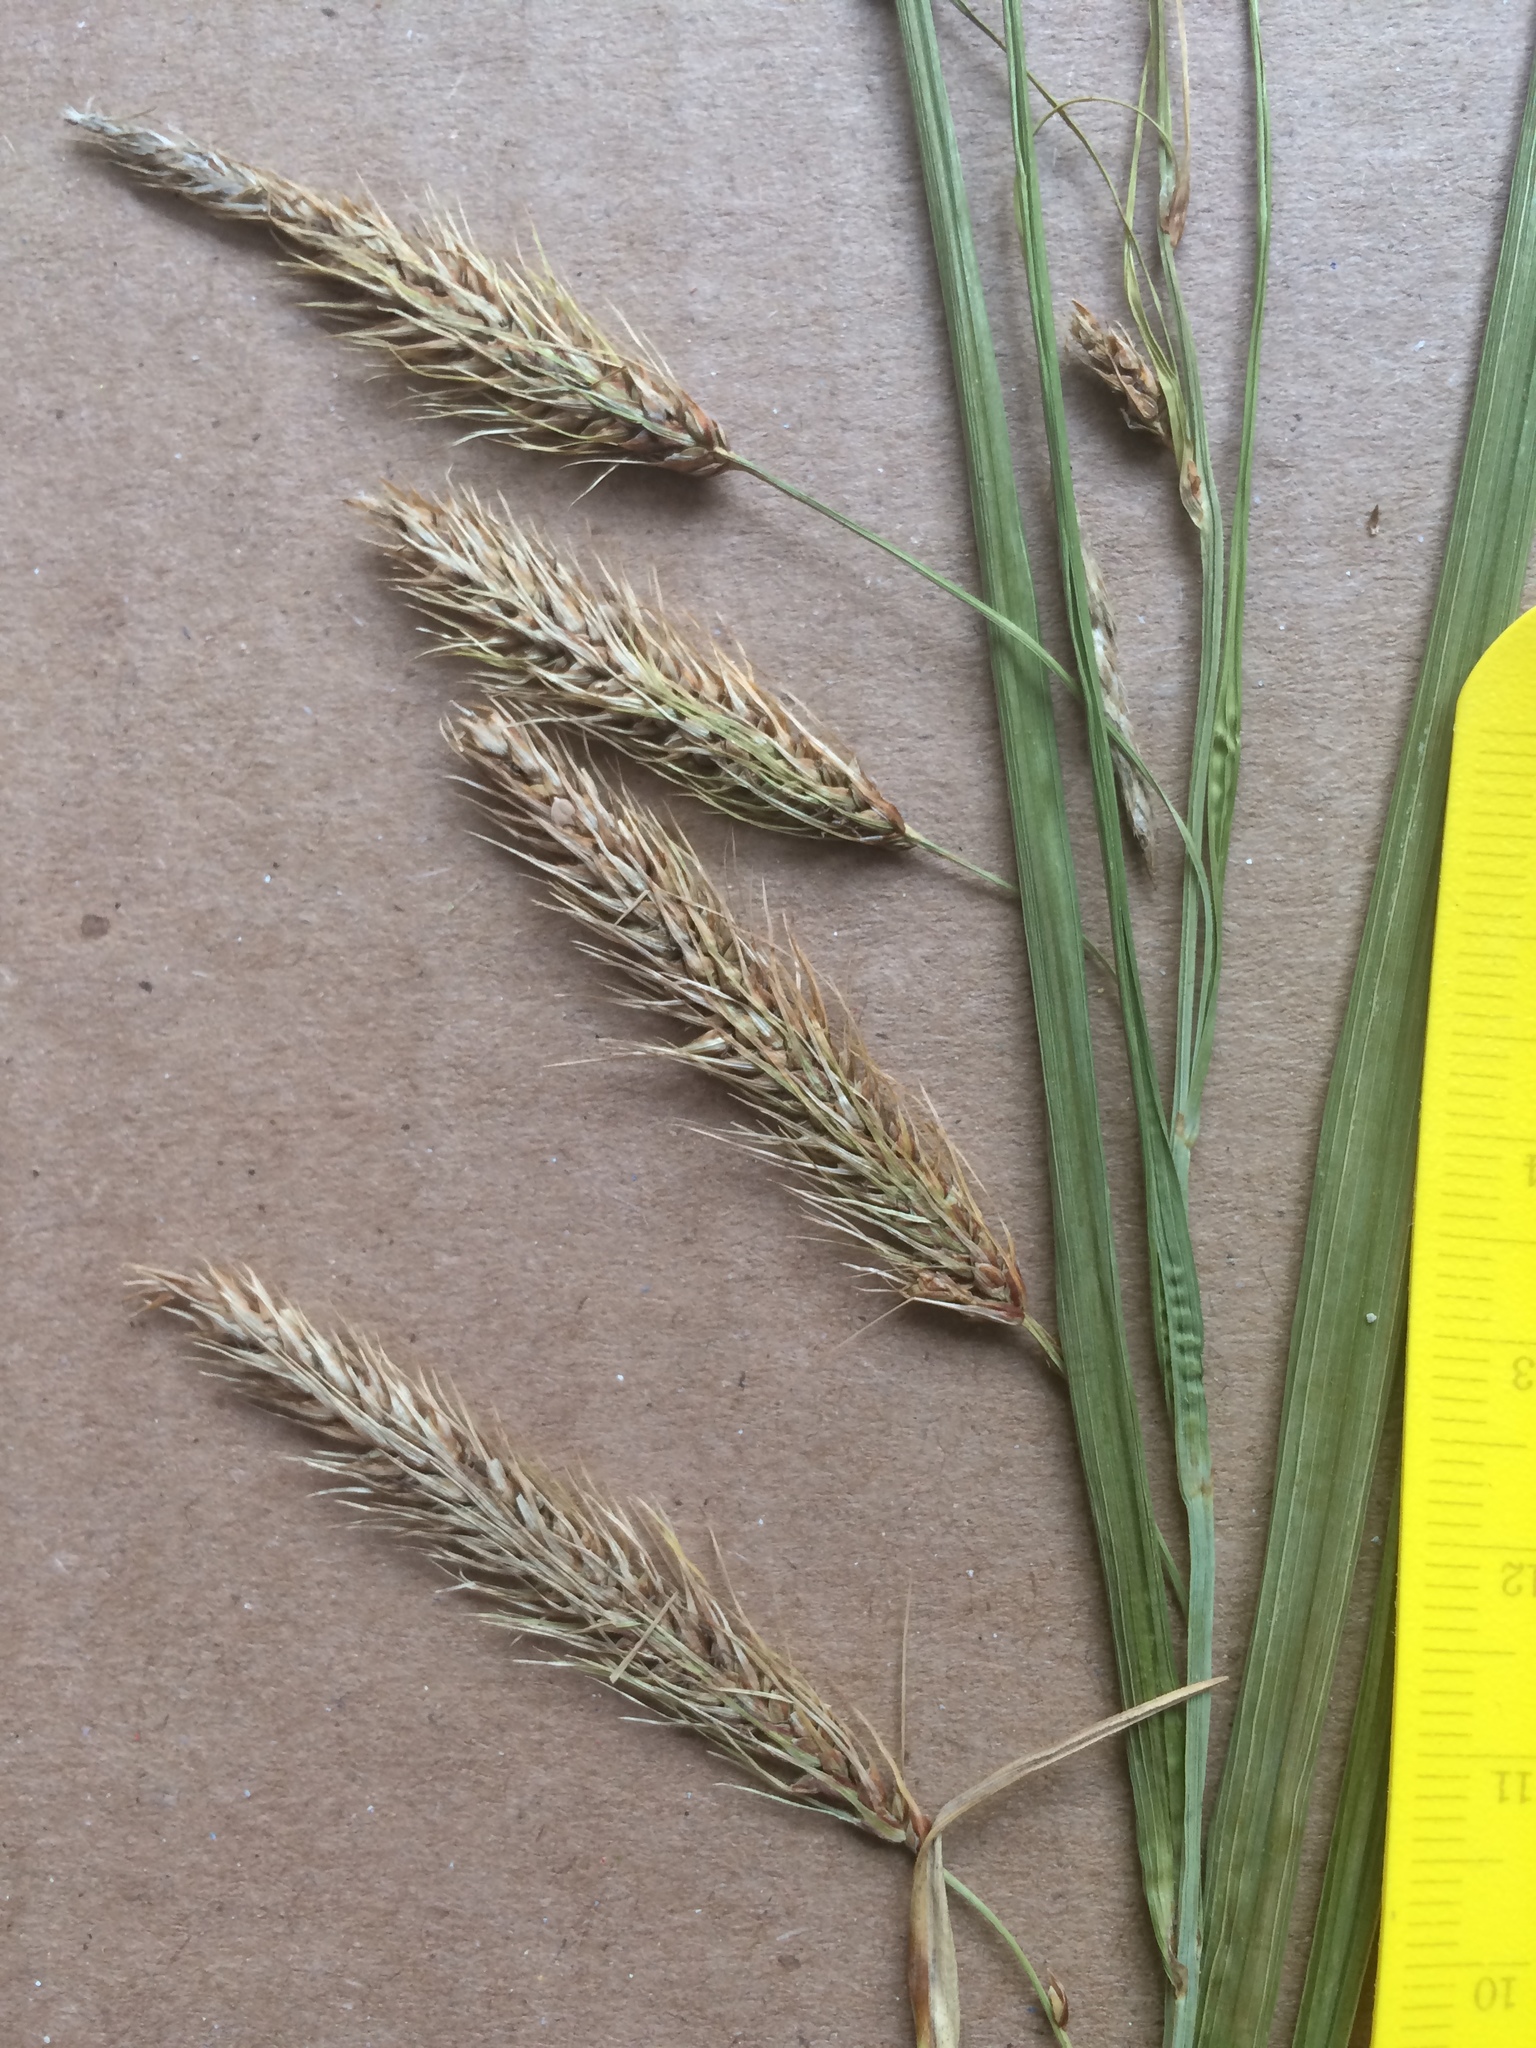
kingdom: Plantae
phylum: Tracheophyta
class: Liliopsida
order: Poales
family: Cyperaceae
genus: Carex
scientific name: Carex paleacea
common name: Chaffy sedge
